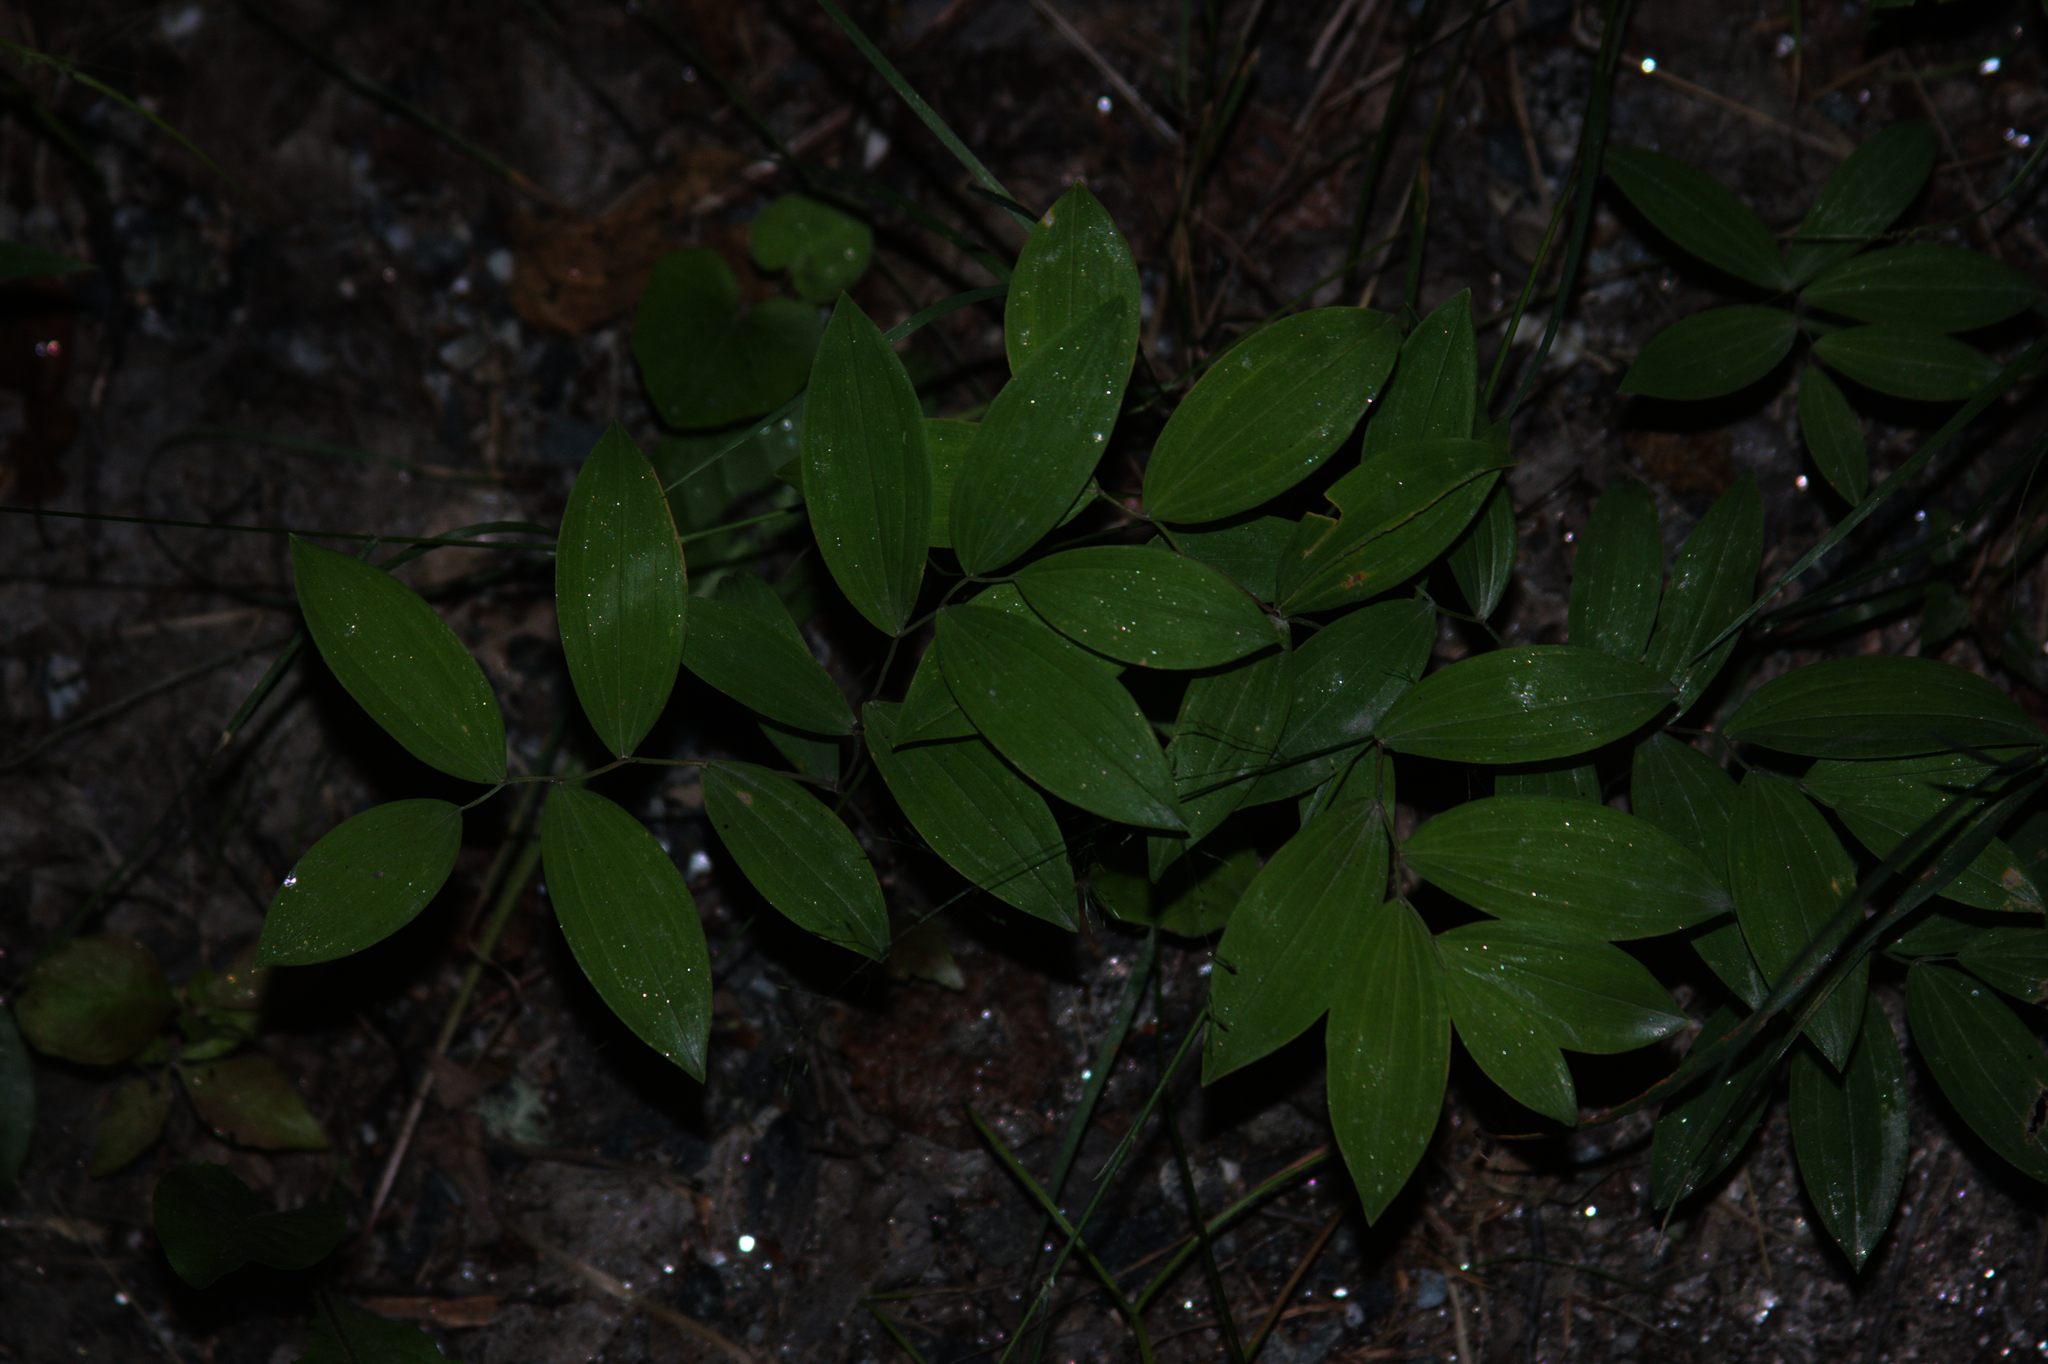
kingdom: Plantae
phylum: Tracheophyta
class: Liliopsida
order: Liliales
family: Colchicaceae
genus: Uvularia
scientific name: Uvularia sessilifolia
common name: Straw-lily
